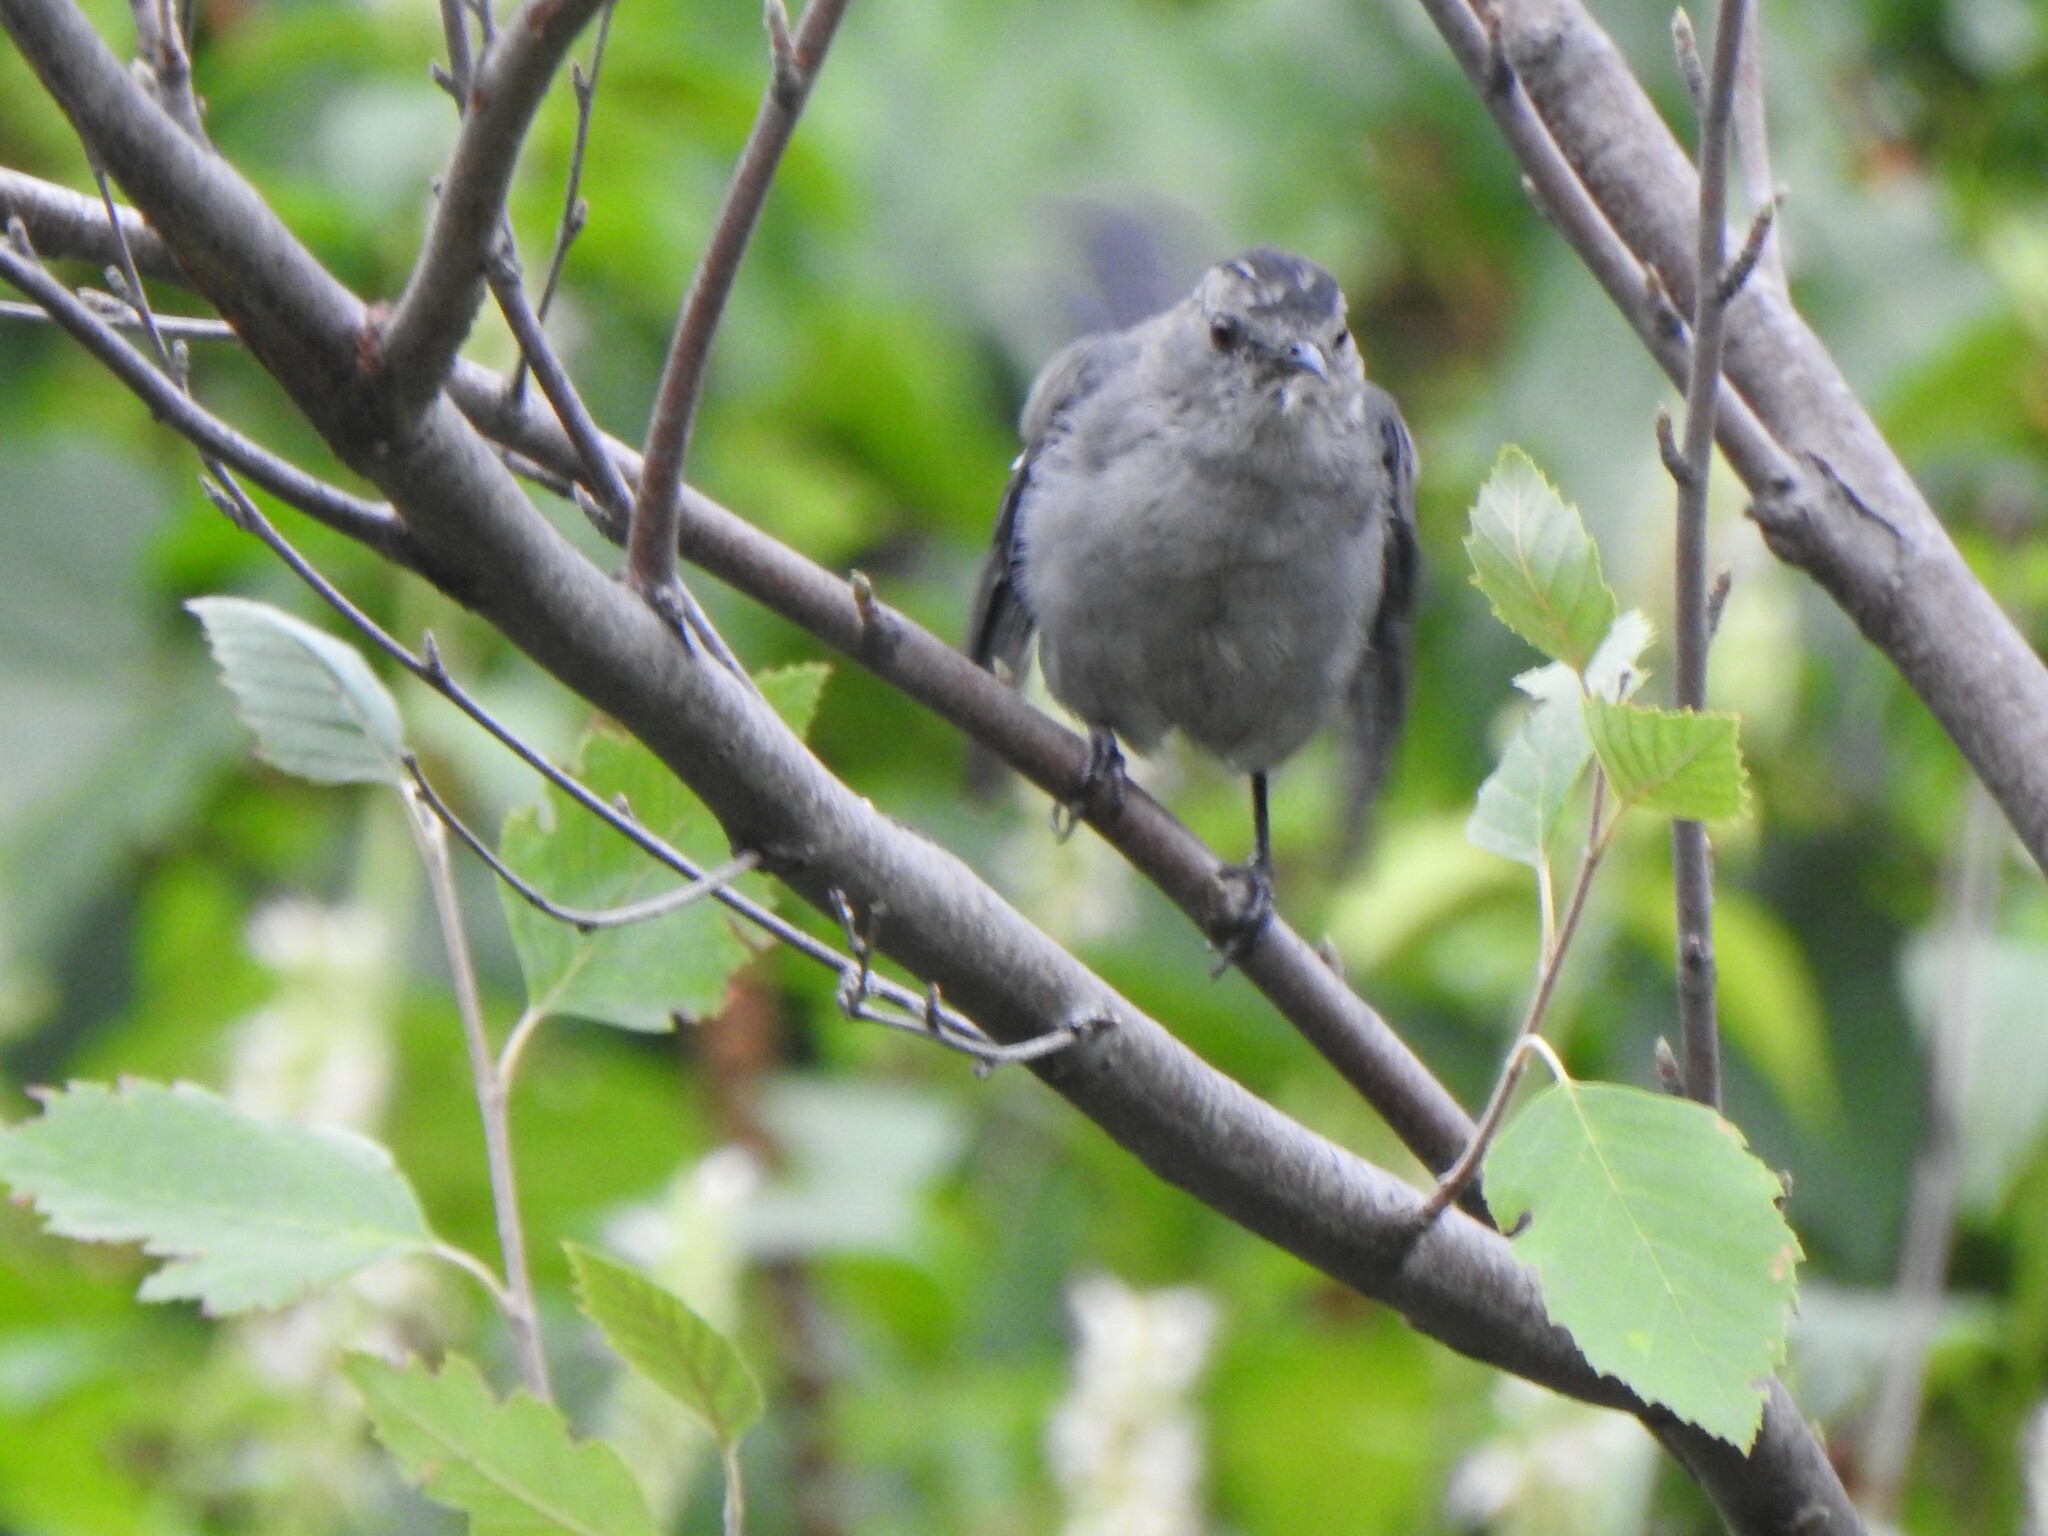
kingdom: Animalia
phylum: Chordata
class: Aves
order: Passeriformes
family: Mimidae
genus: Dumetella
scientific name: Dumetella carolinensis
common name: Gray catbird
